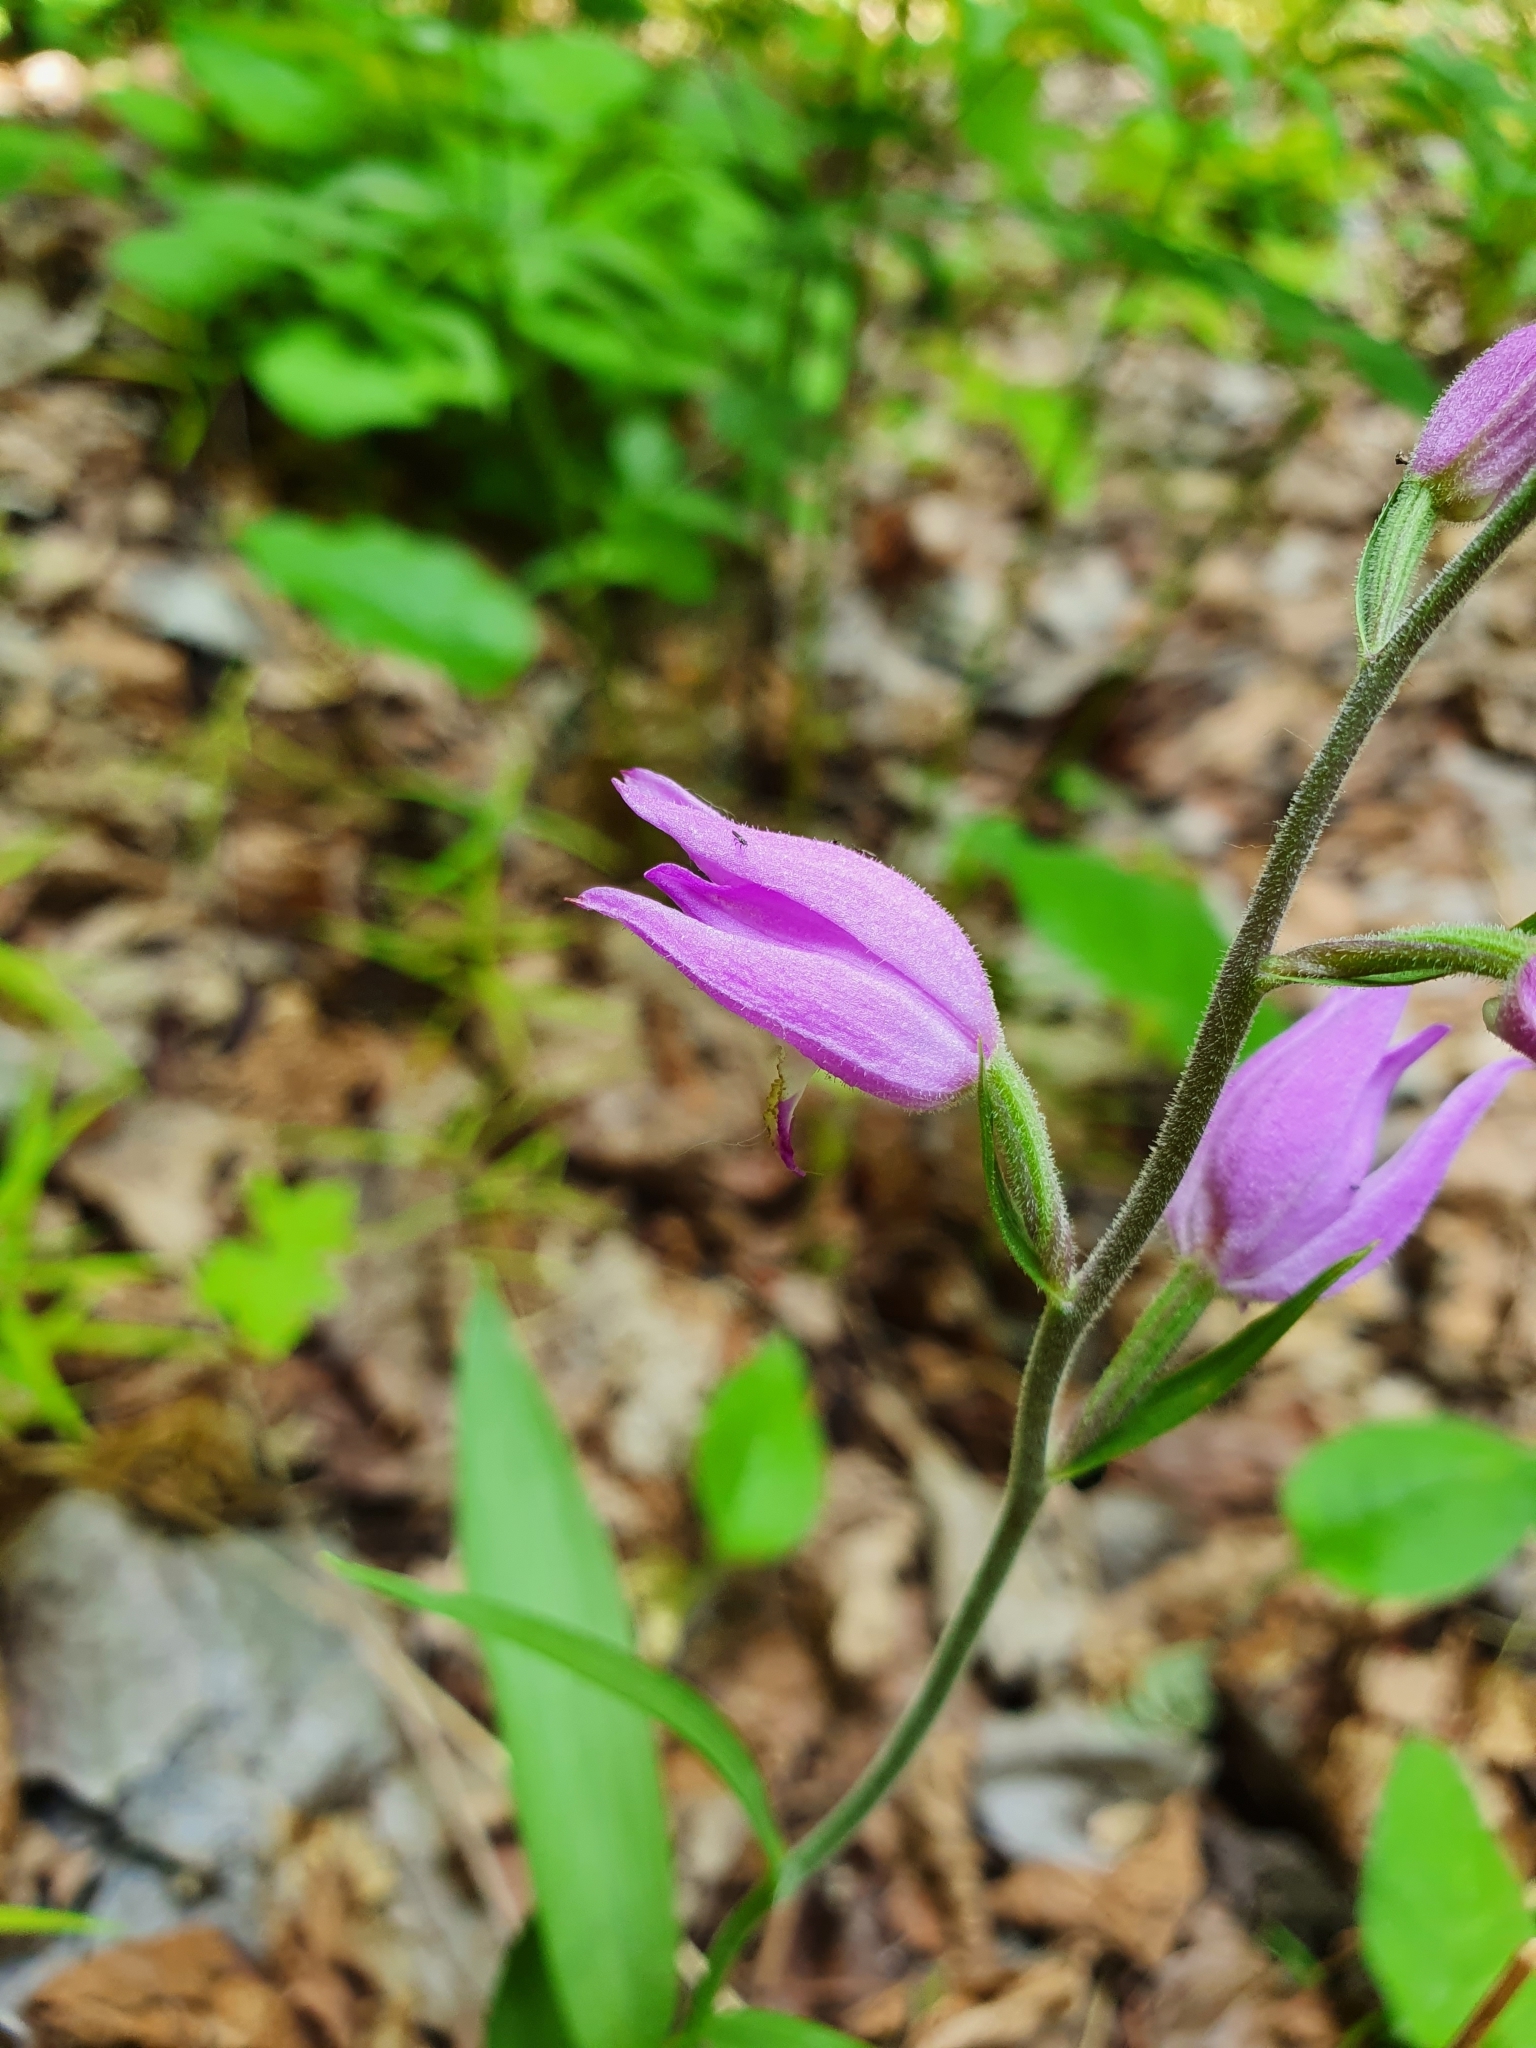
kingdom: Plantae
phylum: Tracheophyta
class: Liliopsida
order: Asparagales
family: Orchidaceae
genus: Cephalanthera
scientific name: Cephalanthera rubra
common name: Red helleborine
